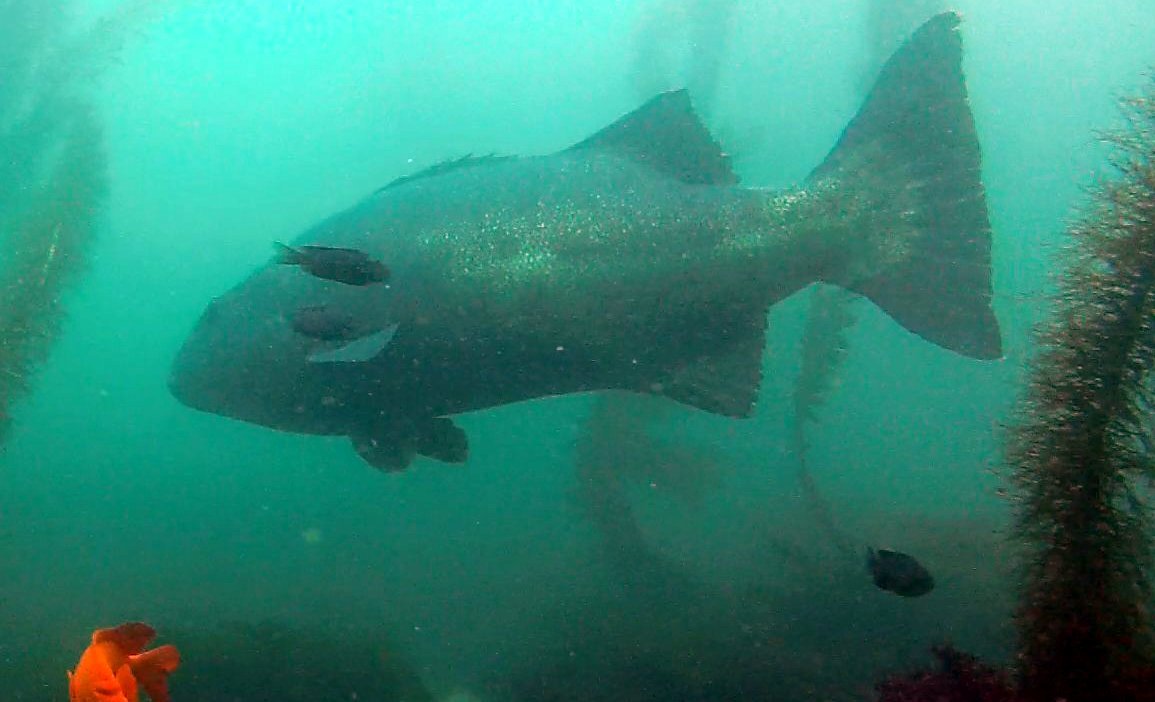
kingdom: Animalia
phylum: Chordata
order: Perciformes
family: Polyprionidae
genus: Stereolepis
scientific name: Stereolepis gigas
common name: Giant sea bass
